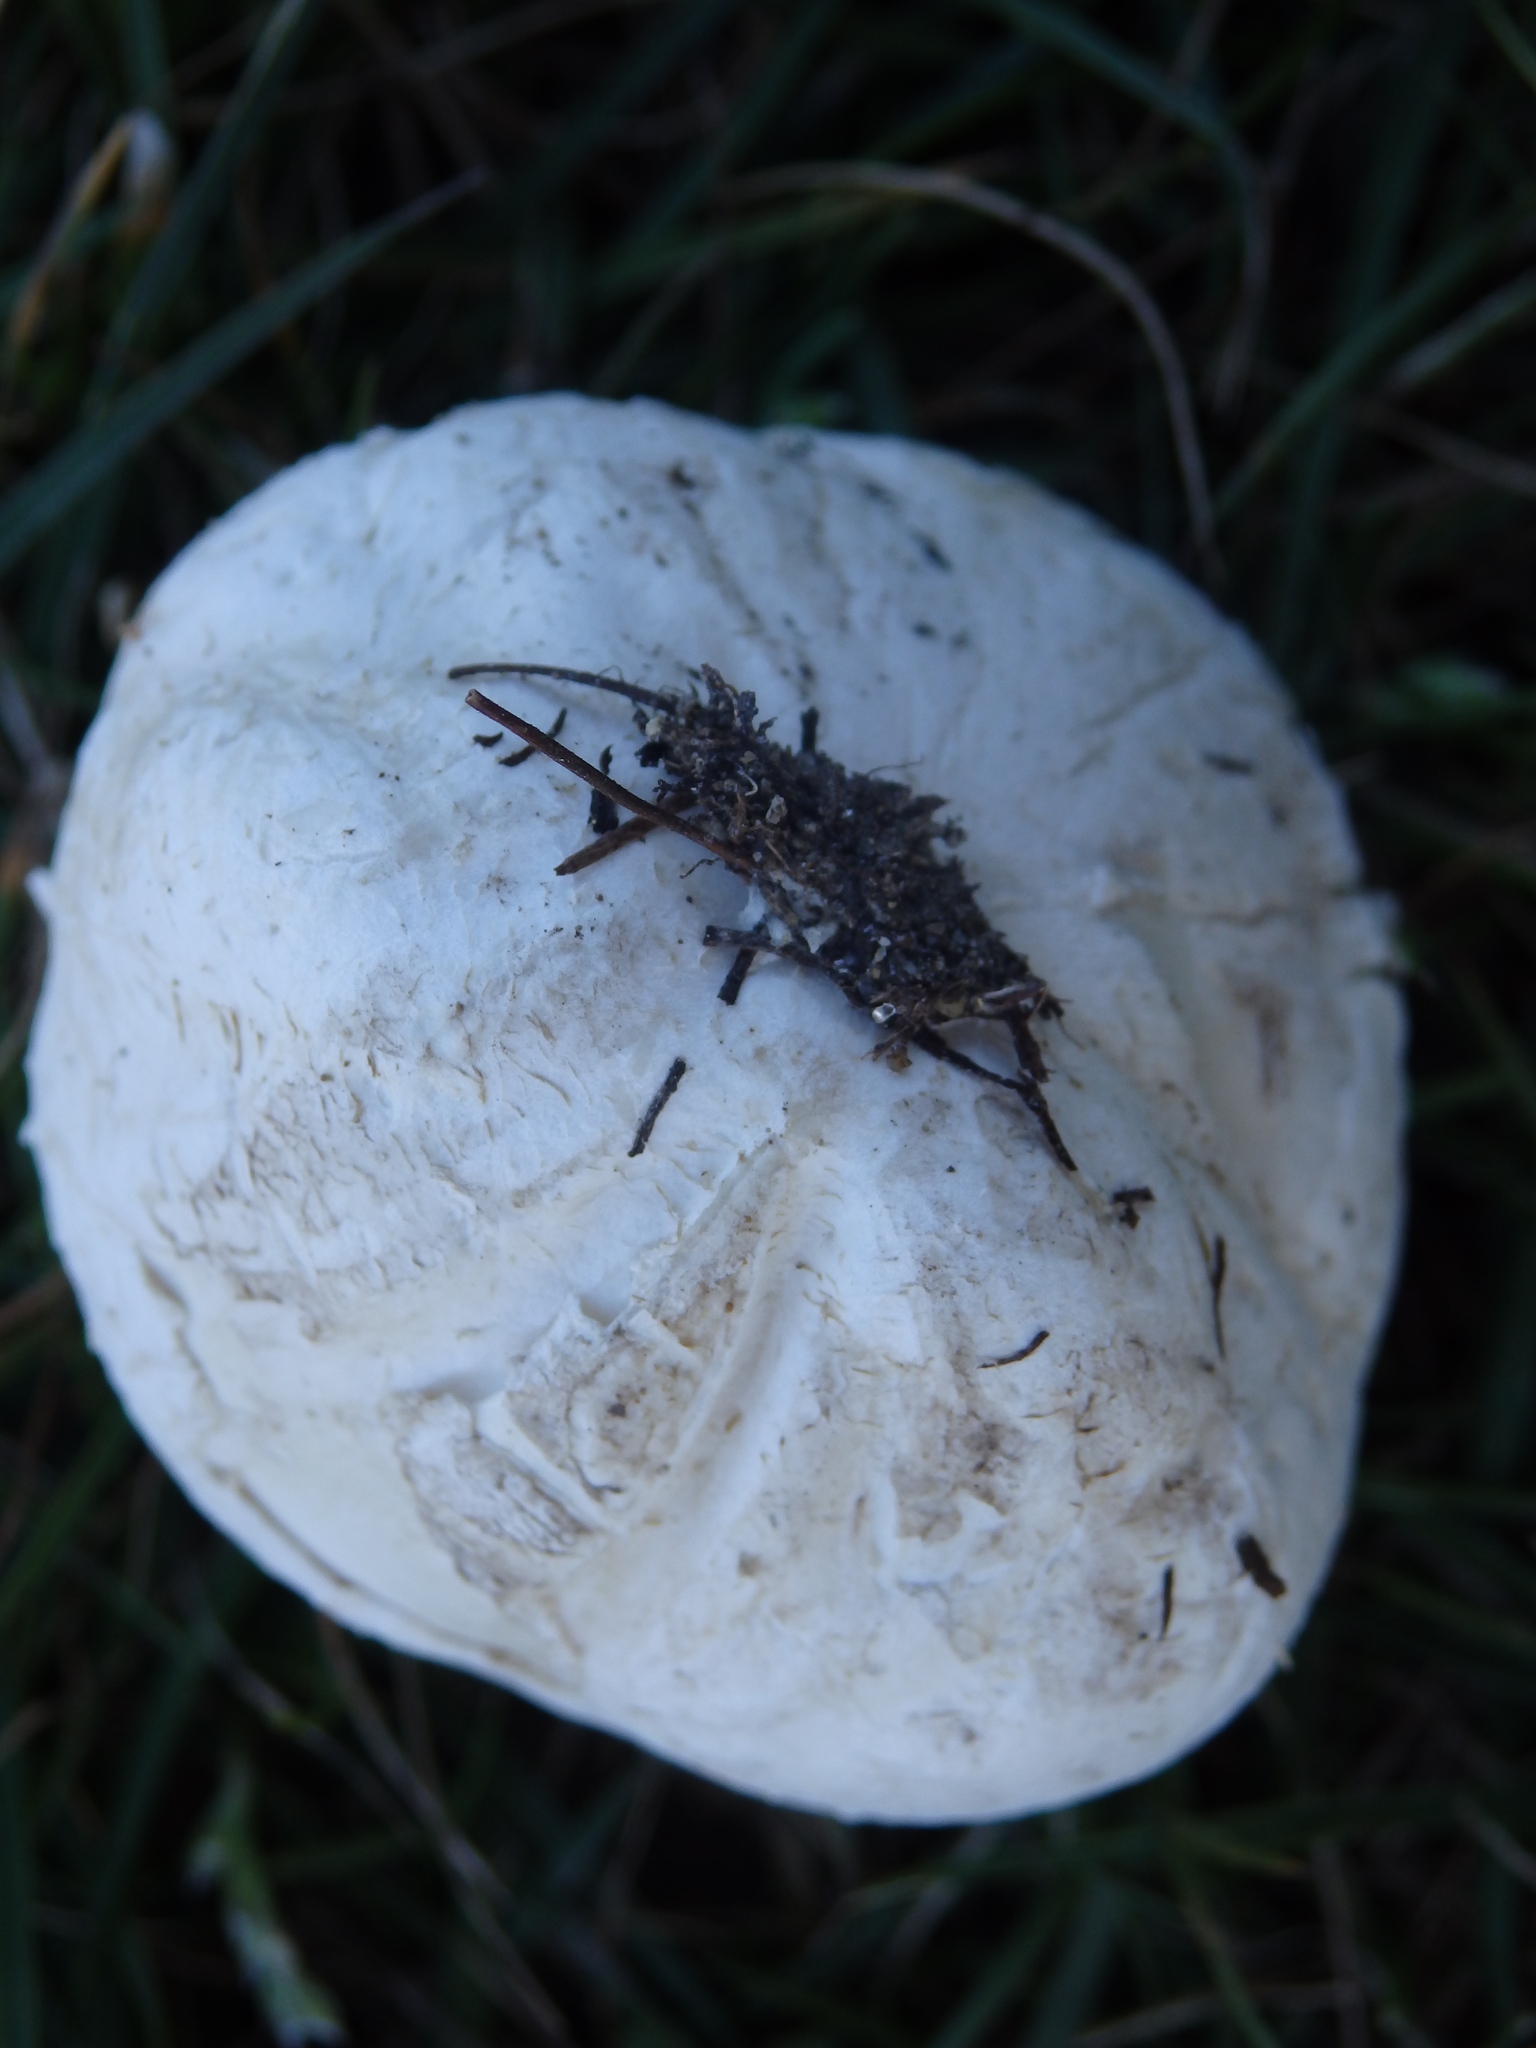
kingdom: Fungi
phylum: Basidiomycota
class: Agaricomycetes
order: Agaricales
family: Lycoperdaceae
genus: Bovista
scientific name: Bovista plumbea
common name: Grey puffball
